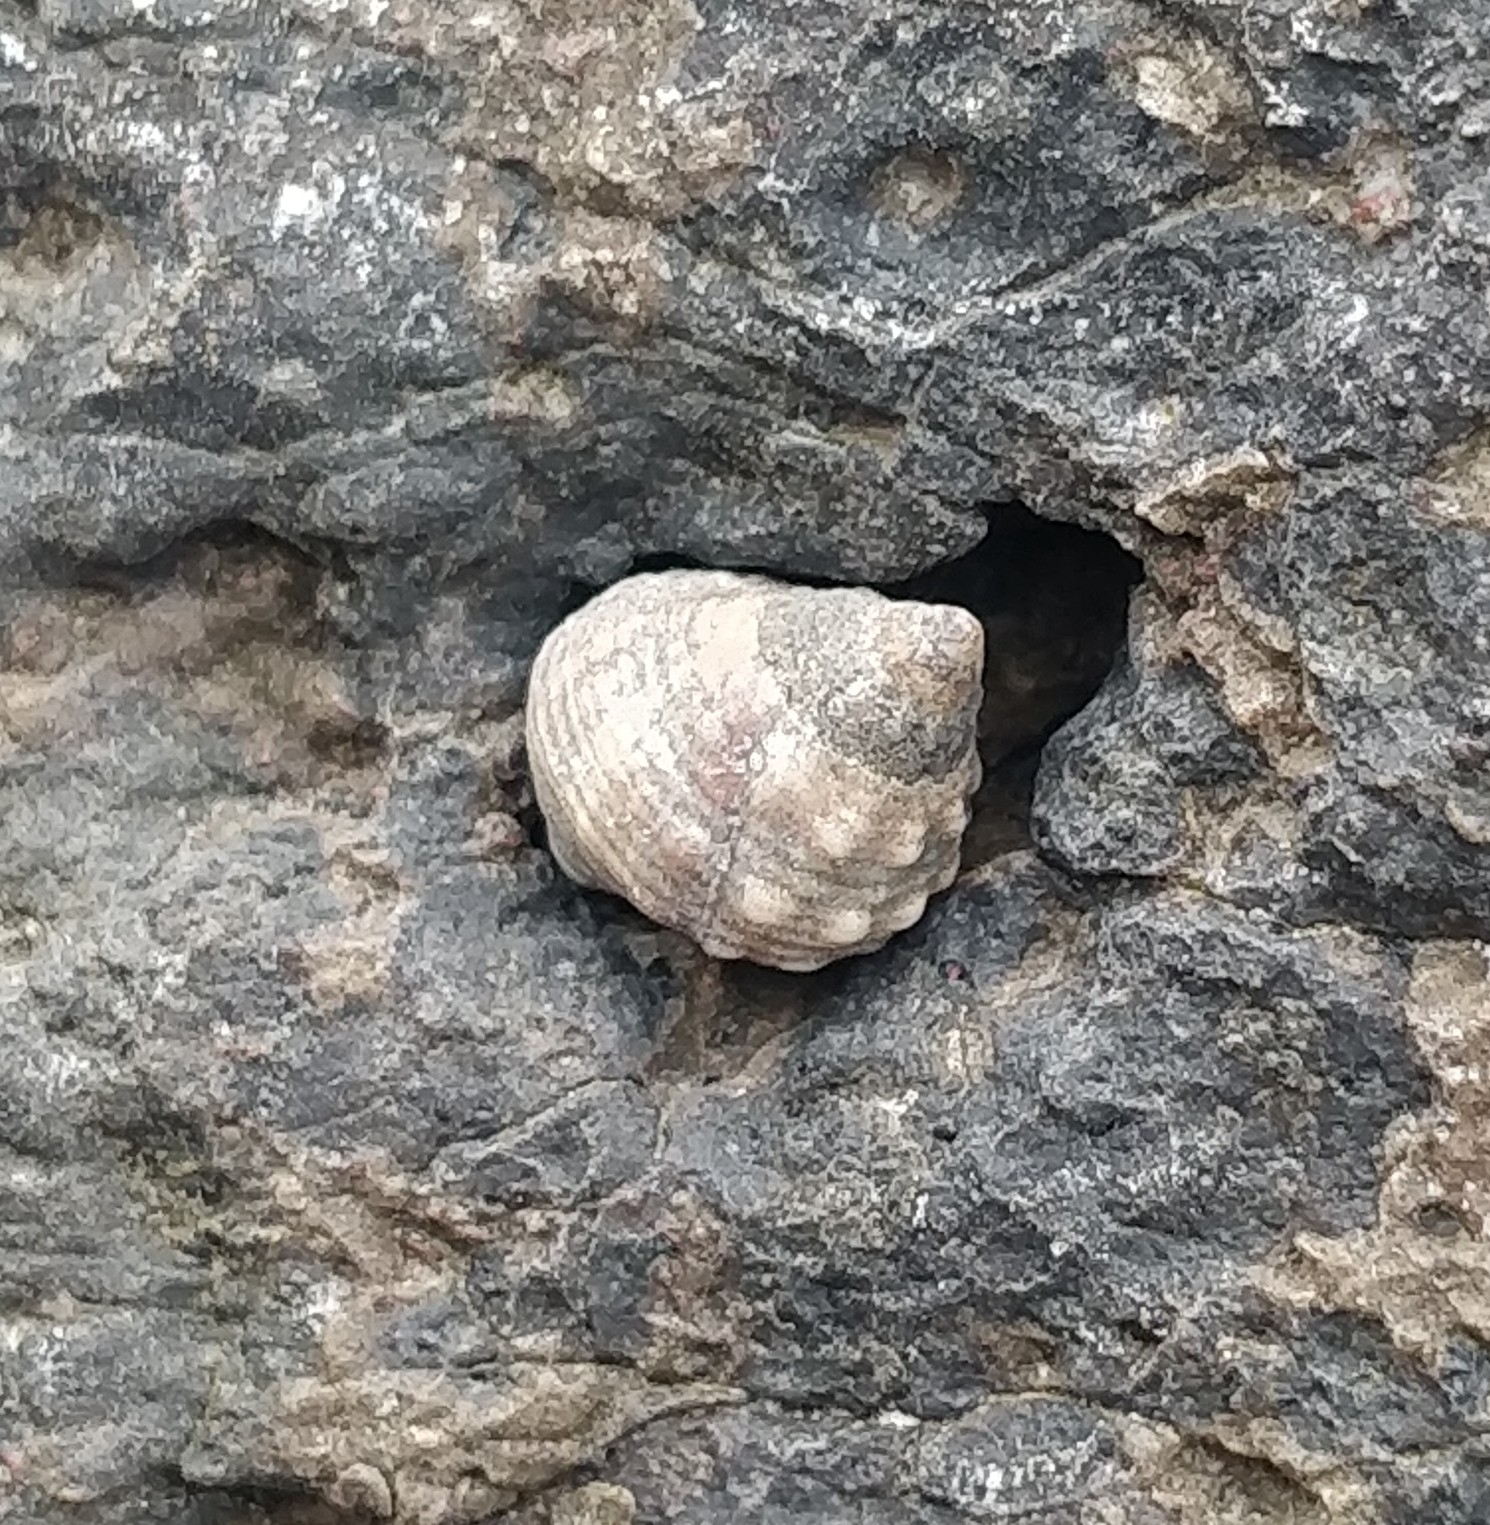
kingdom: Animalia
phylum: Mollusca
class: Gastropoda
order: Littorinimorpha
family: Littorinidae
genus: Tectarius
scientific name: Tectarius striatus
